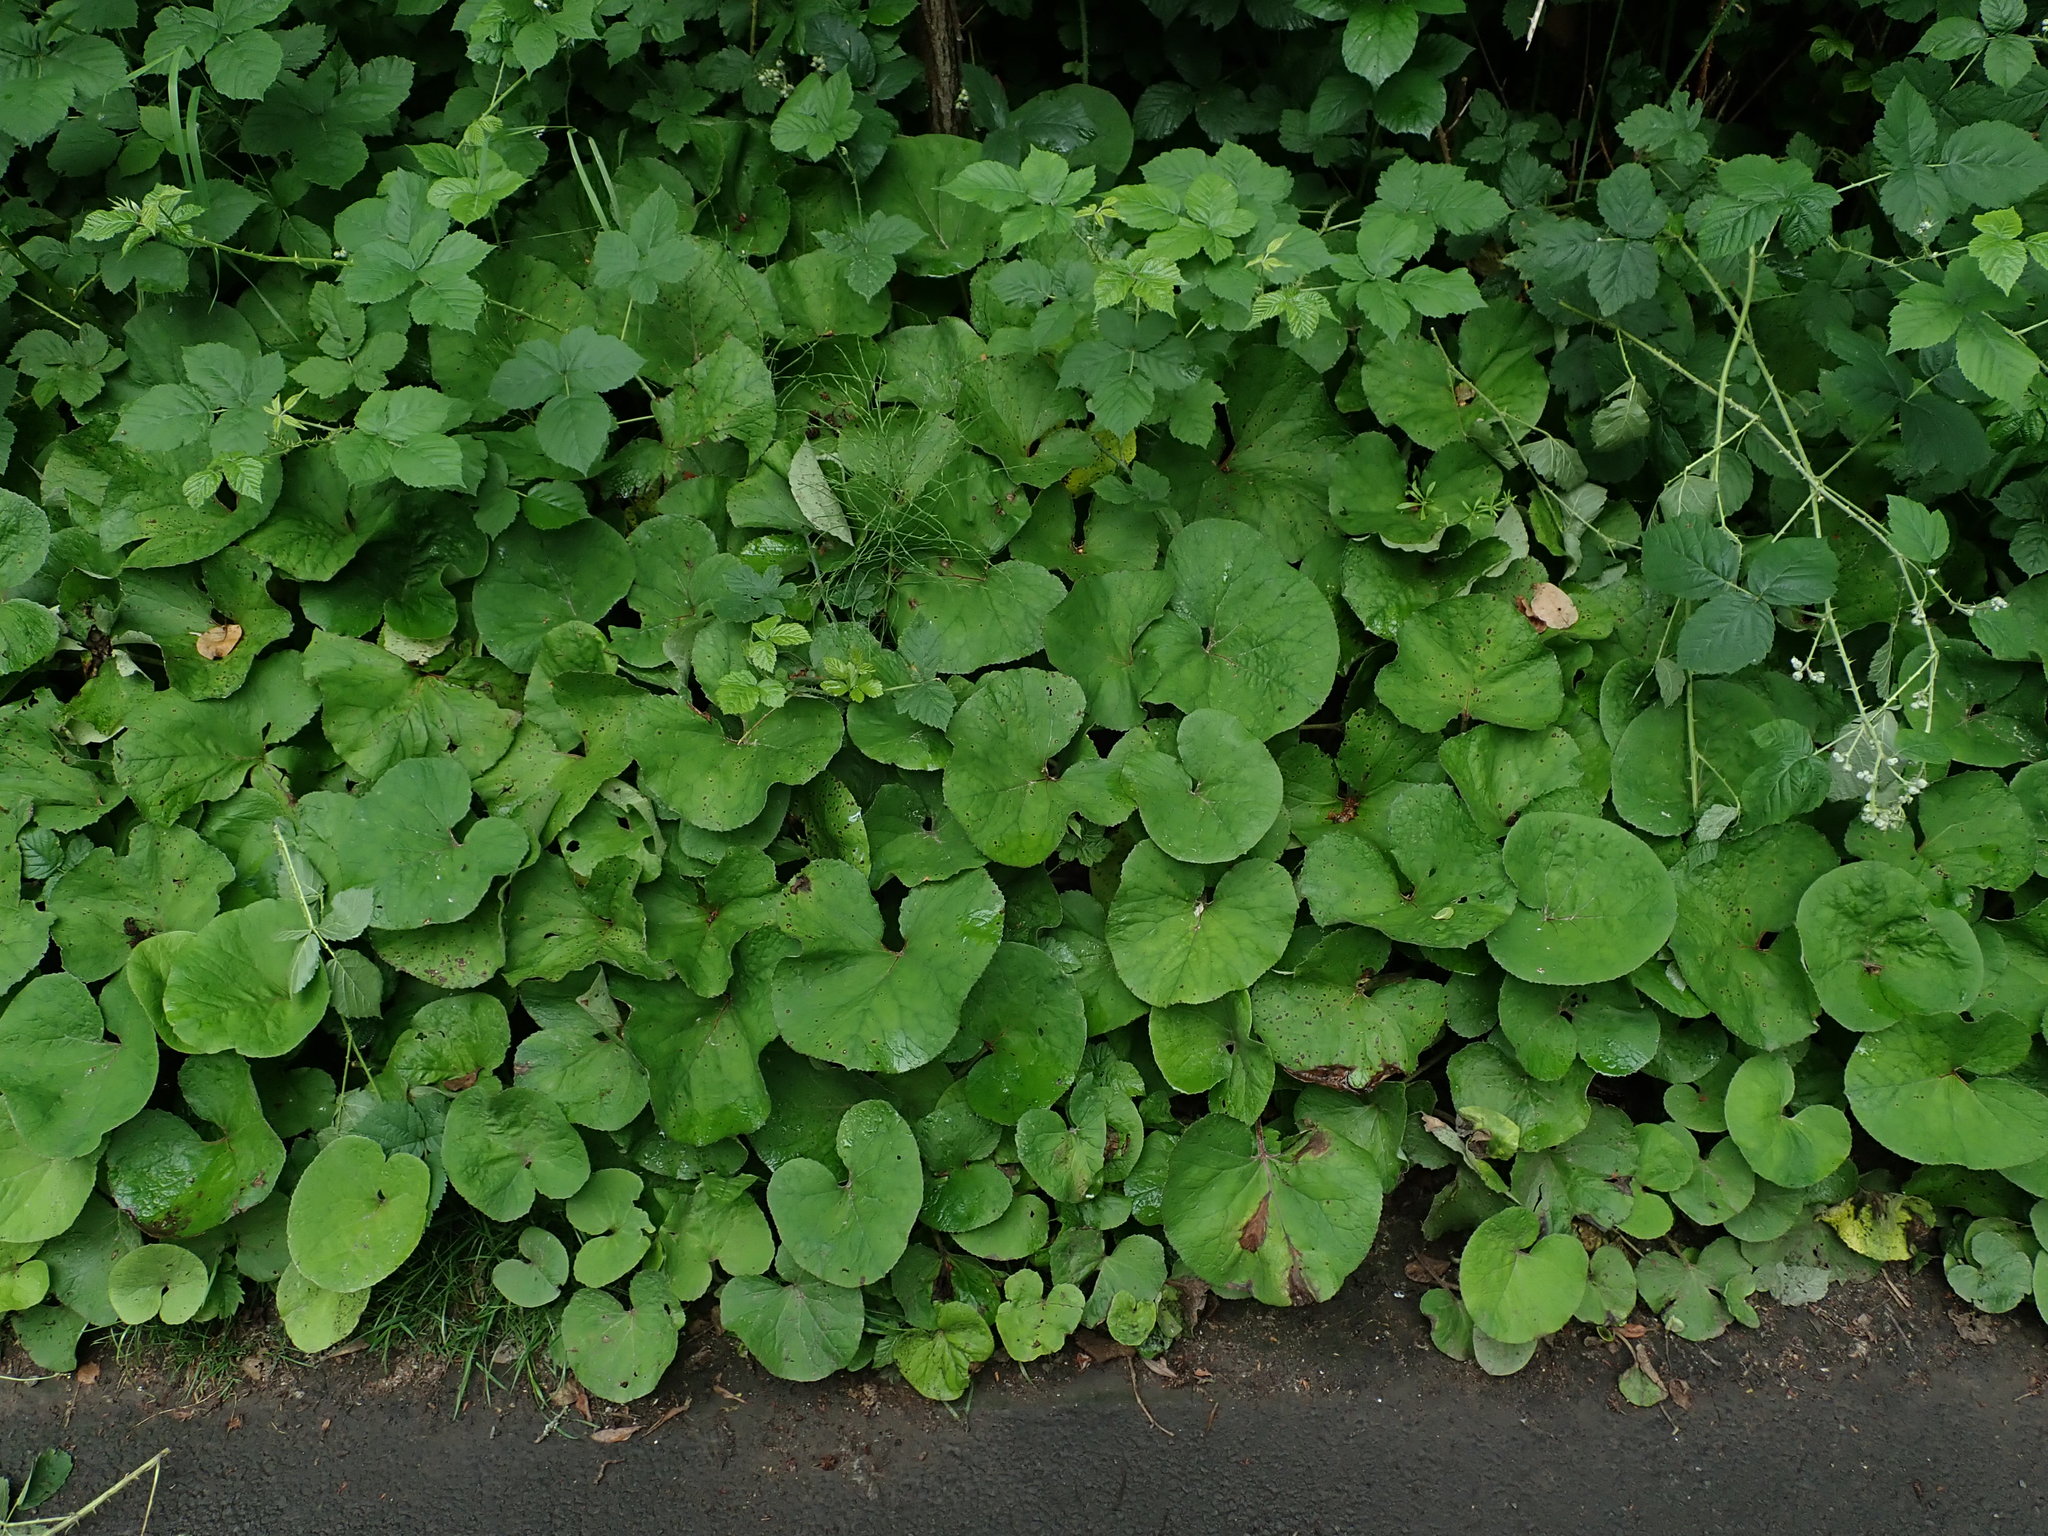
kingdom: Plantae
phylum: Tracheophyta
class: Magnoliopsida
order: Asterales
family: Asteraceae
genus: Petasites
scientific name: Petasites pyrenaicus
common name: Winter heliotrope
